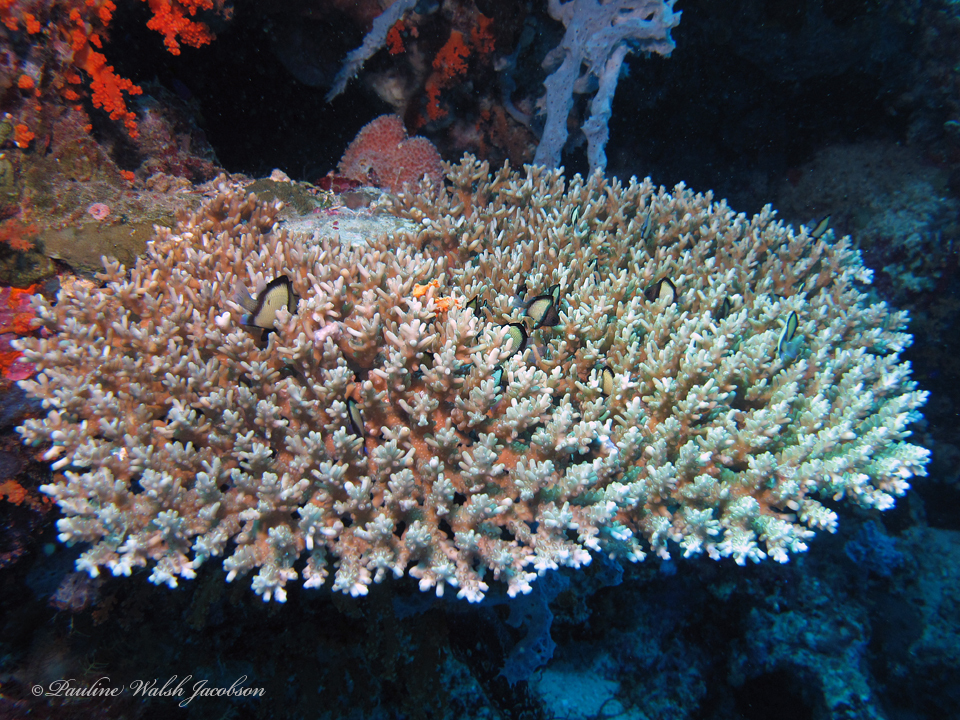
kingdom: Animalia
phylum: Chordata
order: Perciformes
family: Pomacentridae
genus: Dascyllus
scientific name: Dascyllus reticulatus
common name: Reticulated dascyllus
